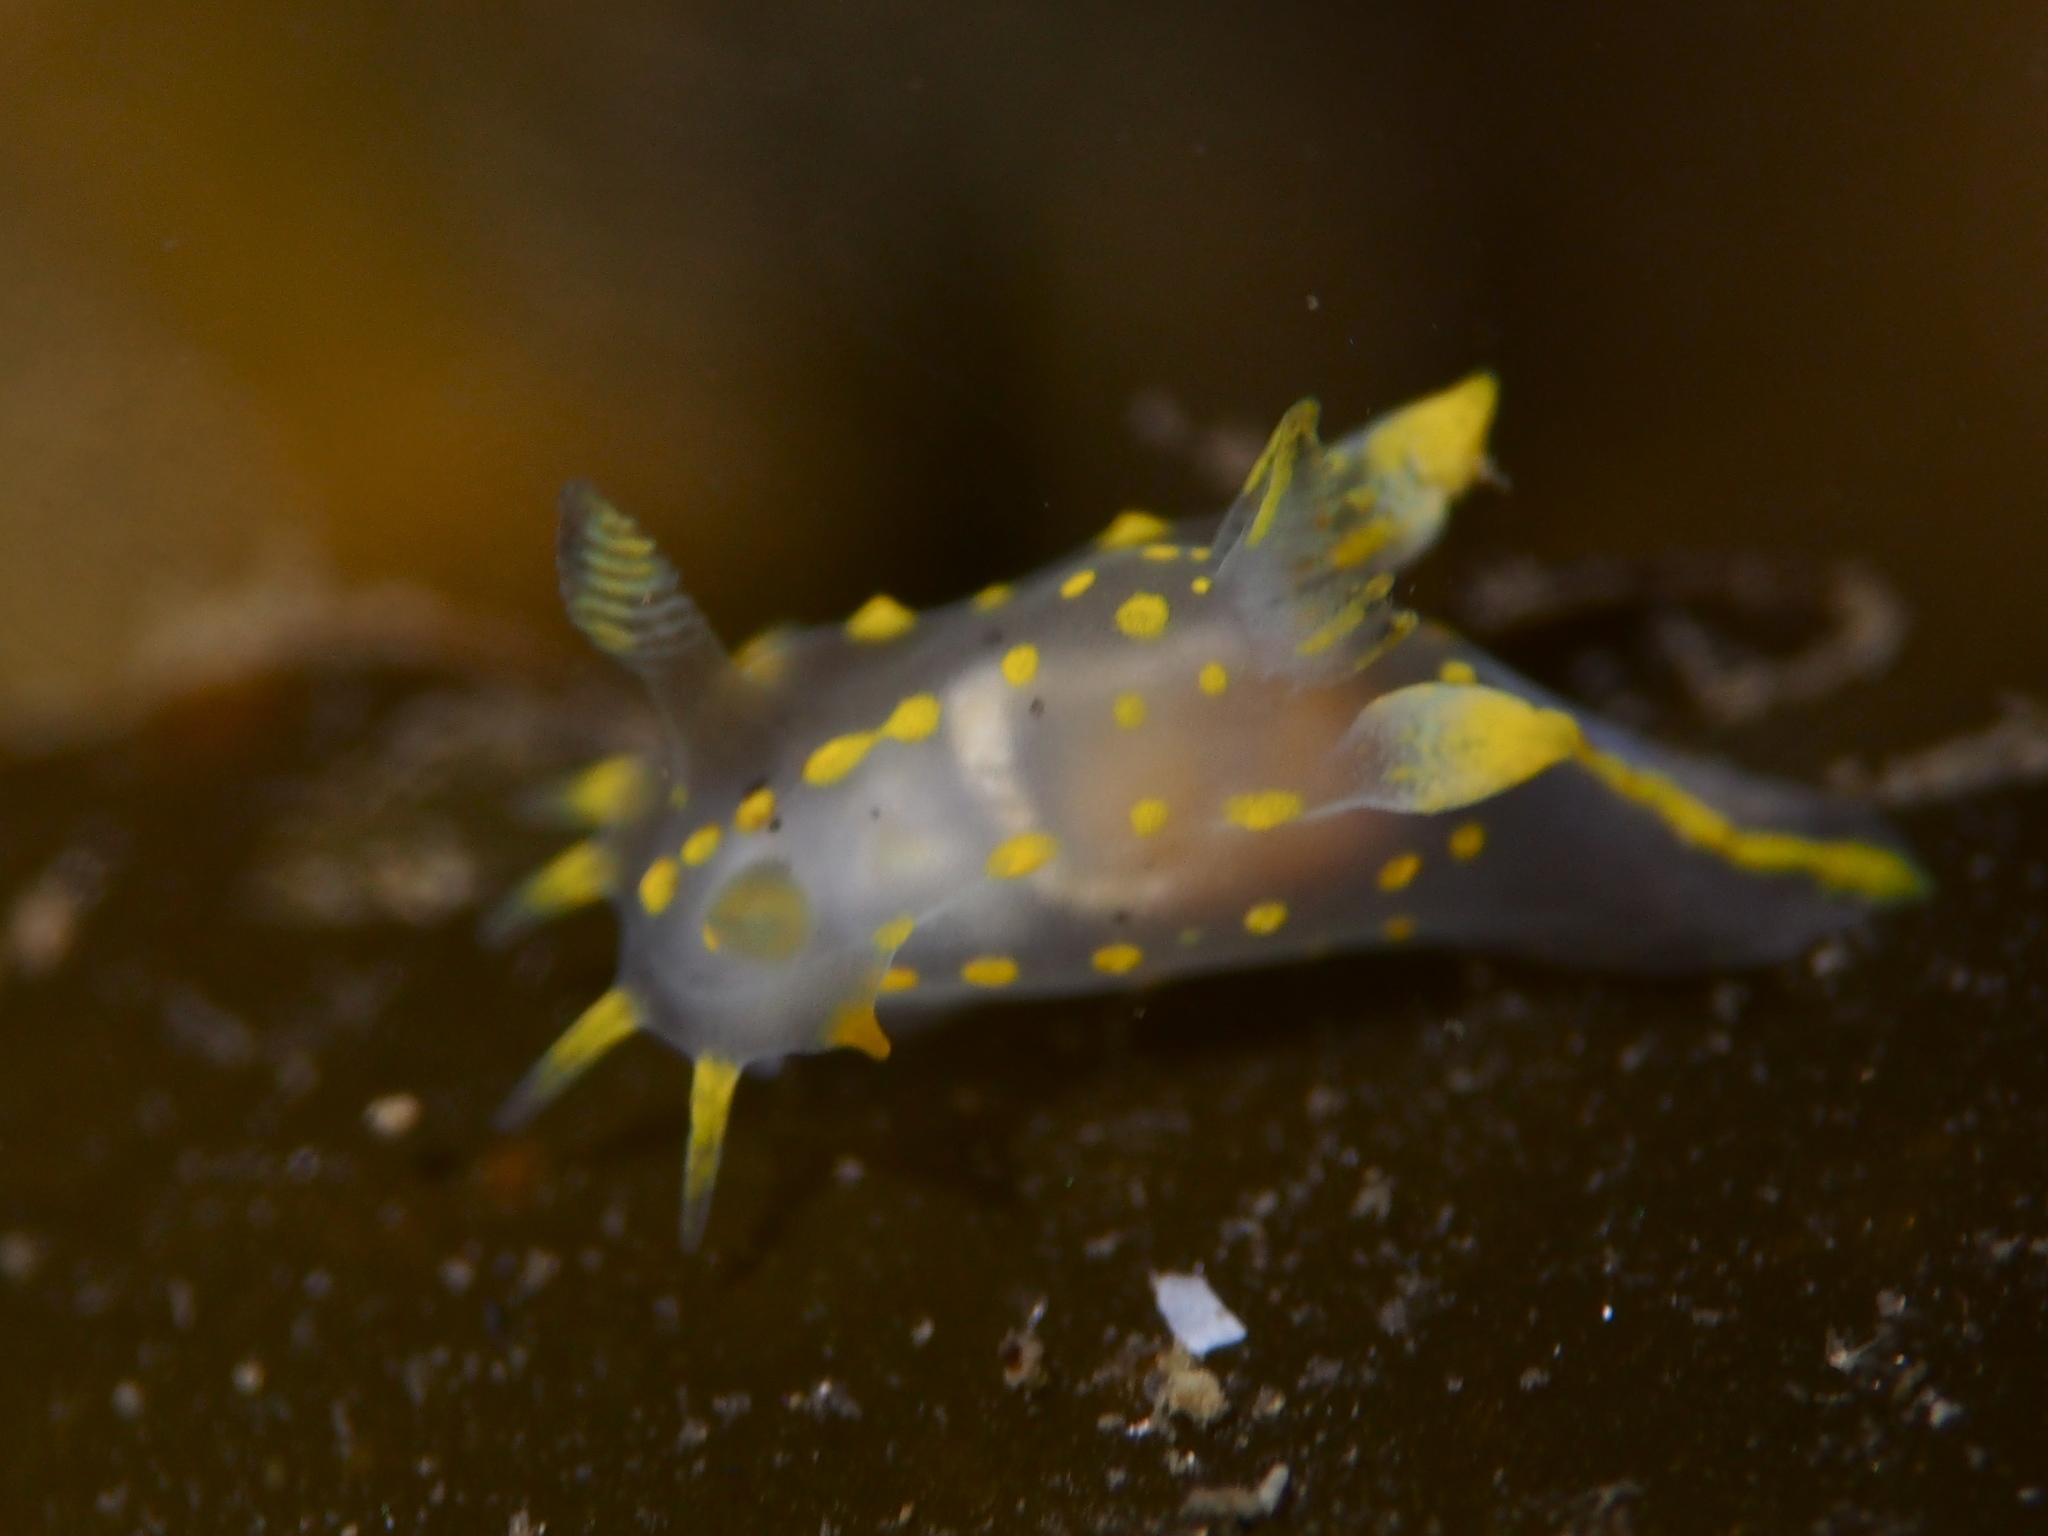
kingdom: Animalia
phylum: Mollusca
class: Gastropoda
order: Nudibranchia
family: Polyceridae
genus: Polycera
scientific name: Polycera quadrilineata
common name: Four-striped polycera
